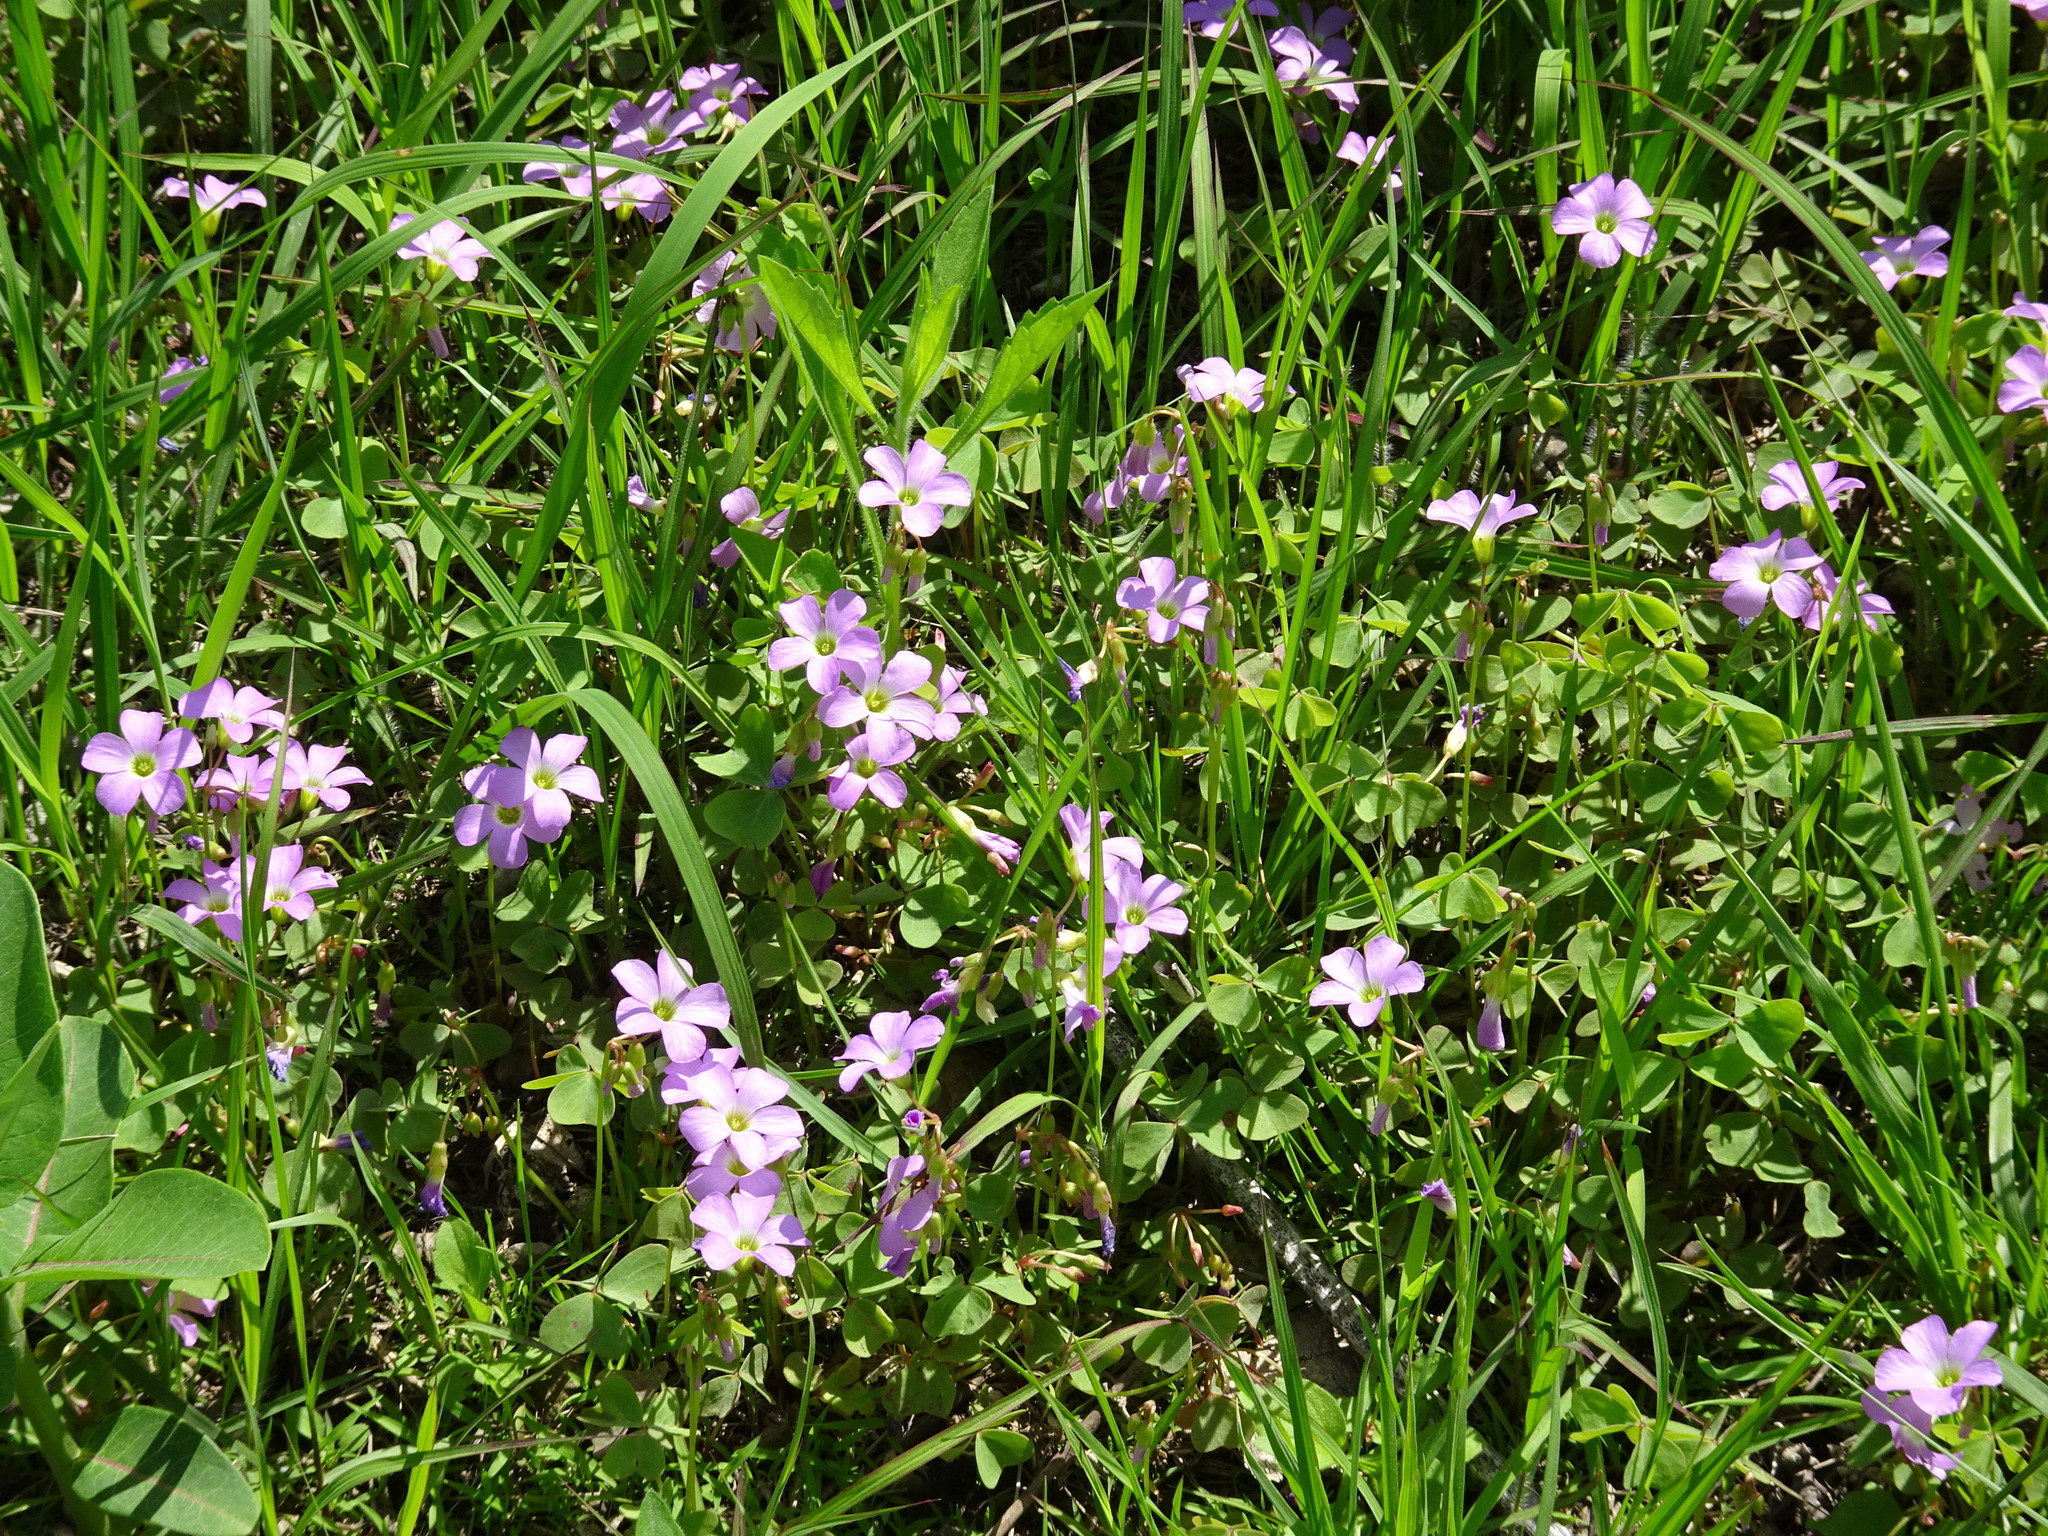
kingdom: Plantae
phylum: Tracheophyta
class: Magnoliopsida
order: Oxalidales
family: Oxalidaceae
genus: Oxalis
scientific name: Oxalis violacea
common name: Violet wood-sorrel
